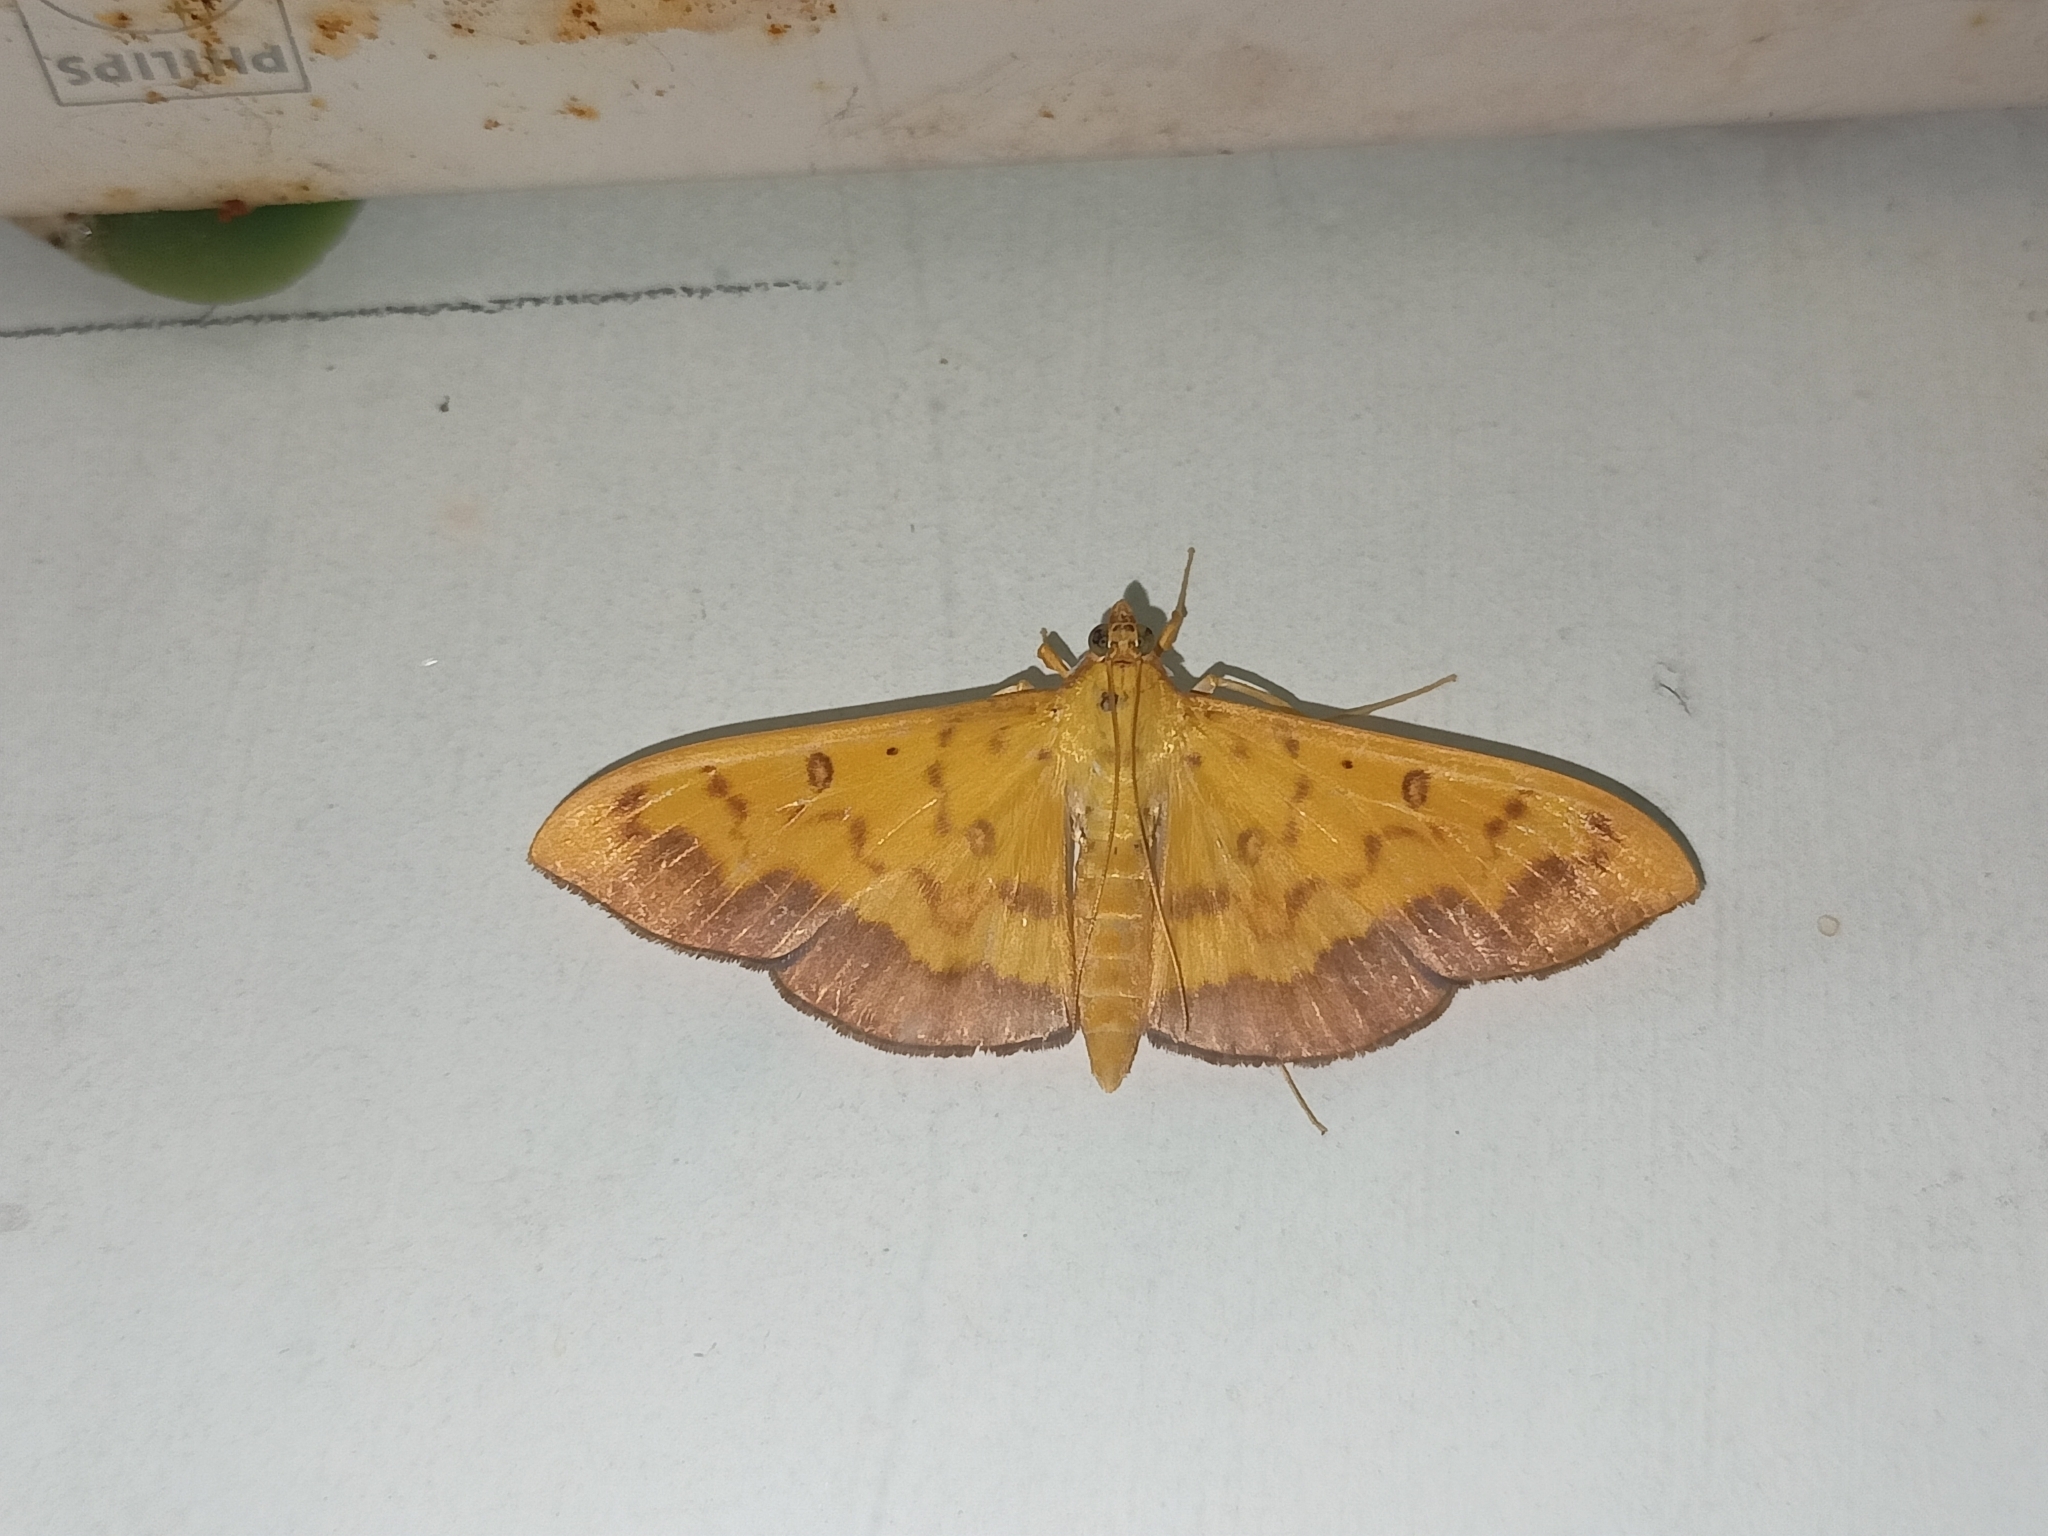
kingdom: Animalia
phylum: Arthropoda
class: Insecta
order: Lepidoptera
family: Crambidae
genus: Botyodes
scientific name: Botyodes asialis
